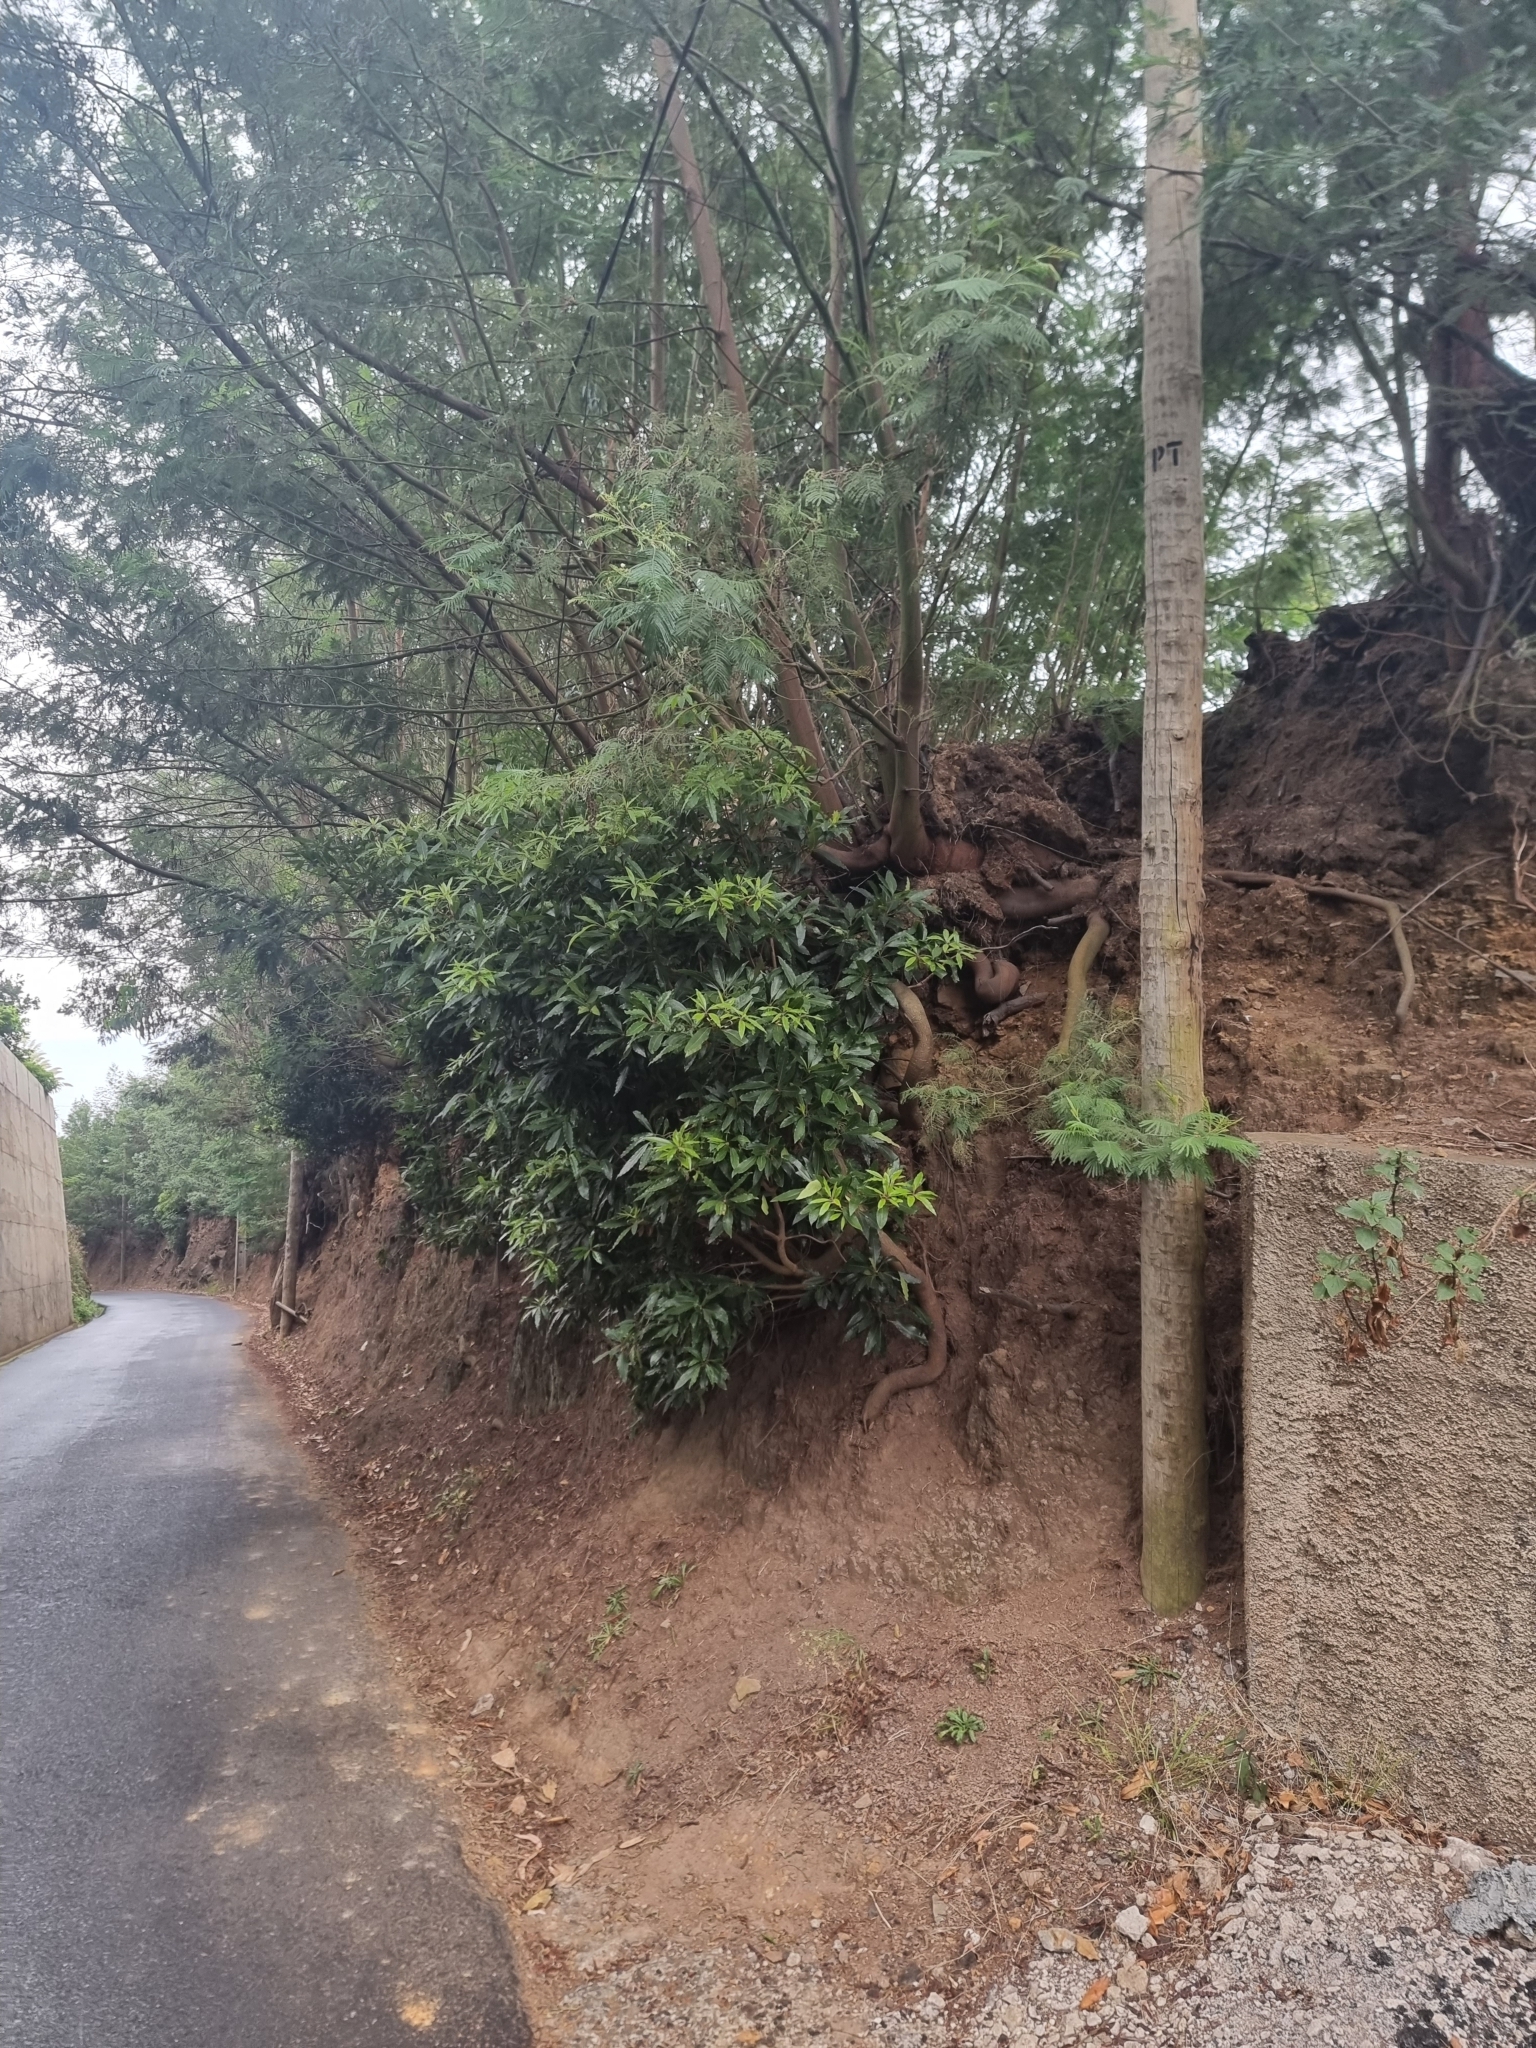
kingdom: Plantae
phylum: Tracheophyta
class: Magnoliopsida
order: Apiales
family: Pittosporaceae
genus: Pittosporum
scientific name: Pittosporum undulatum
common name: Australian cheesewood
